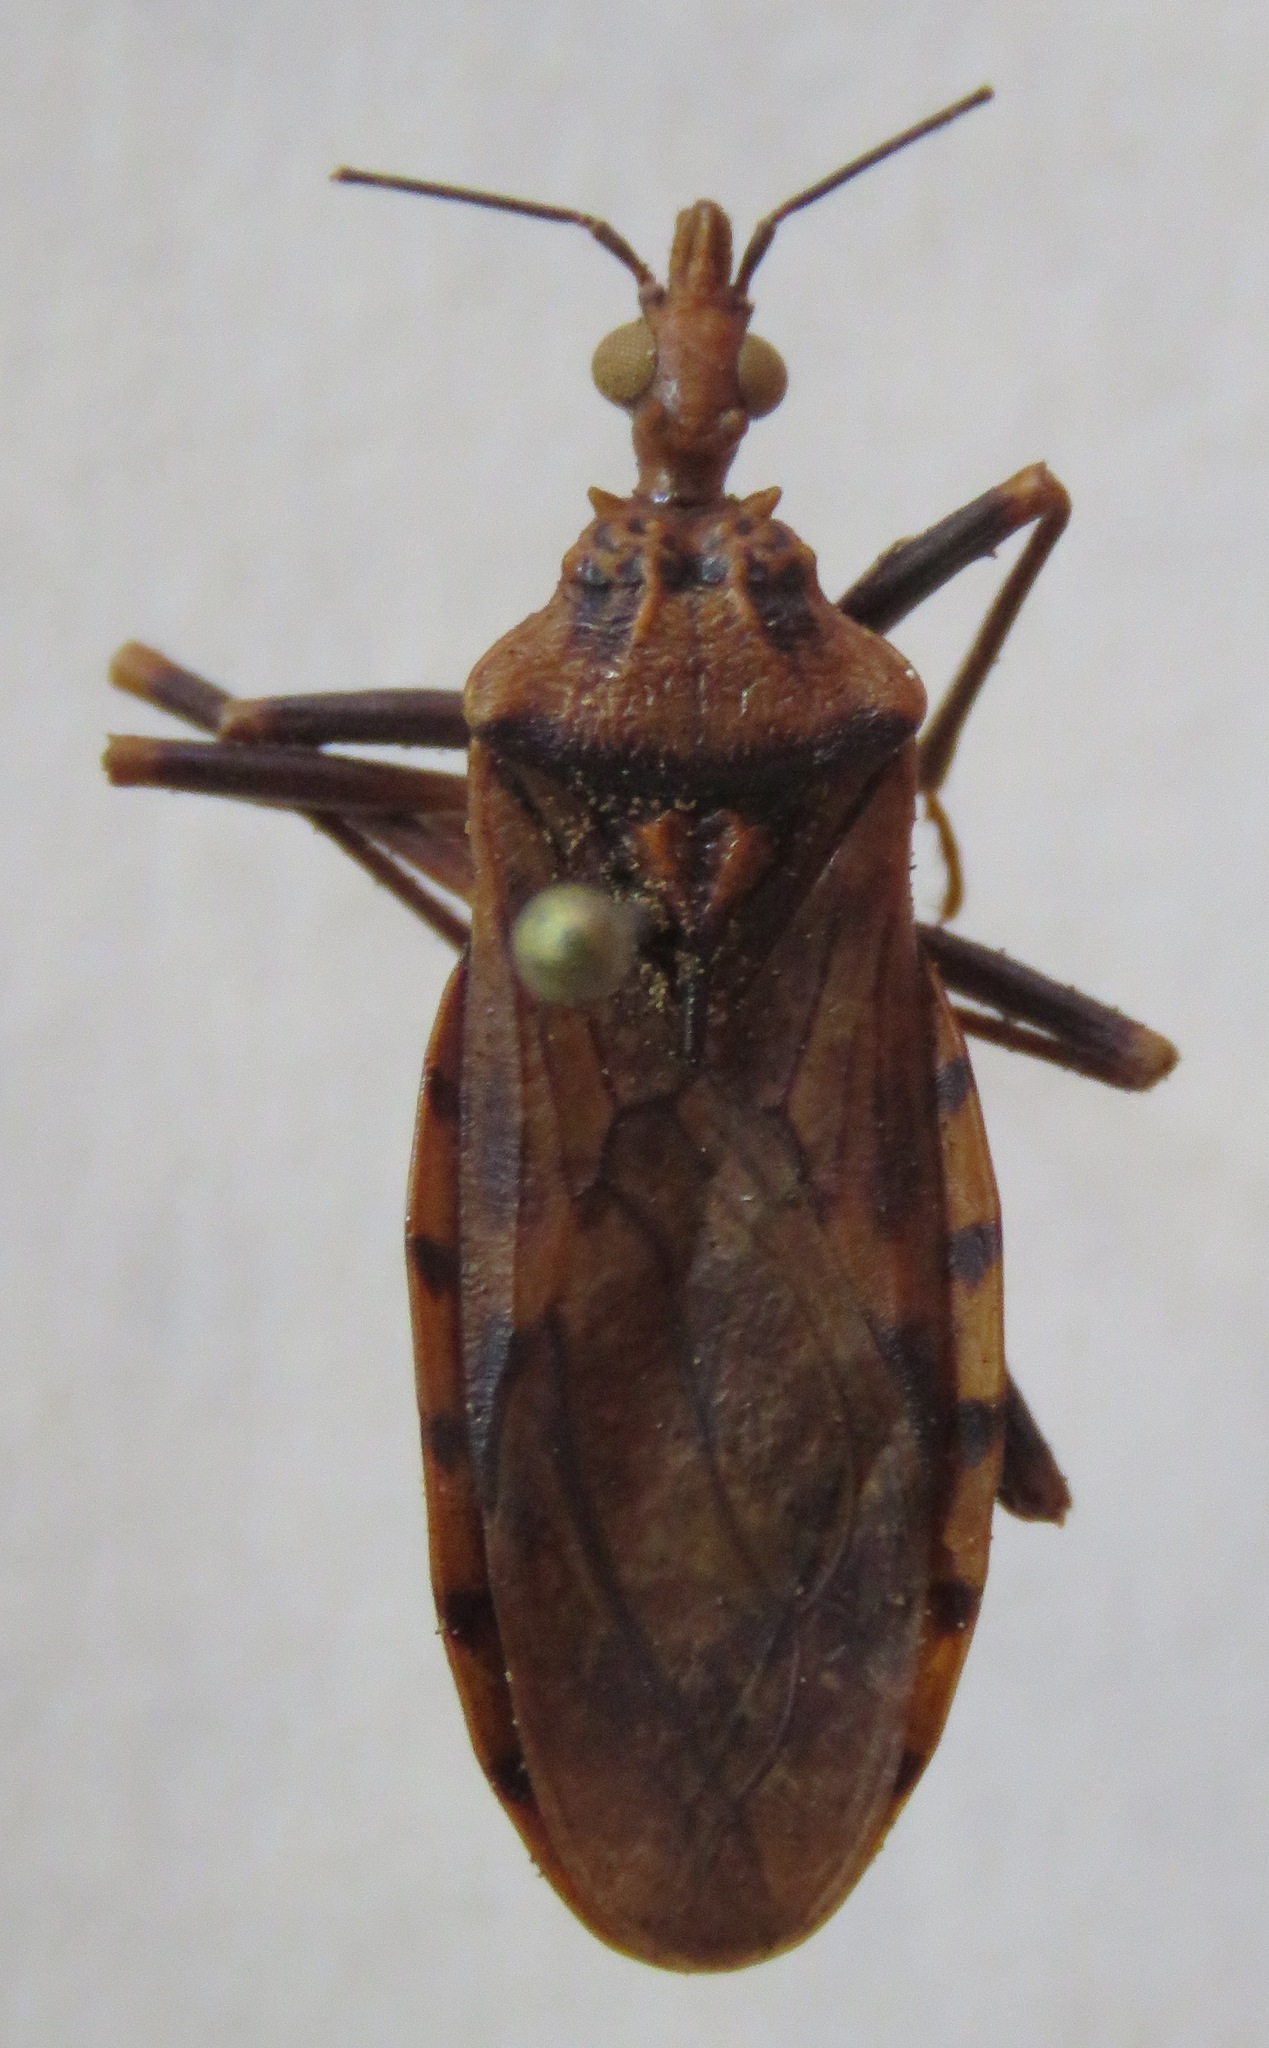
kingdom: Animalia
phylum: Arthropoda
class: Insecta
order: Hemiptera
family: Reduviidae
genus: Panstrongylus
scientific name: Panstrongylus geniculatus
